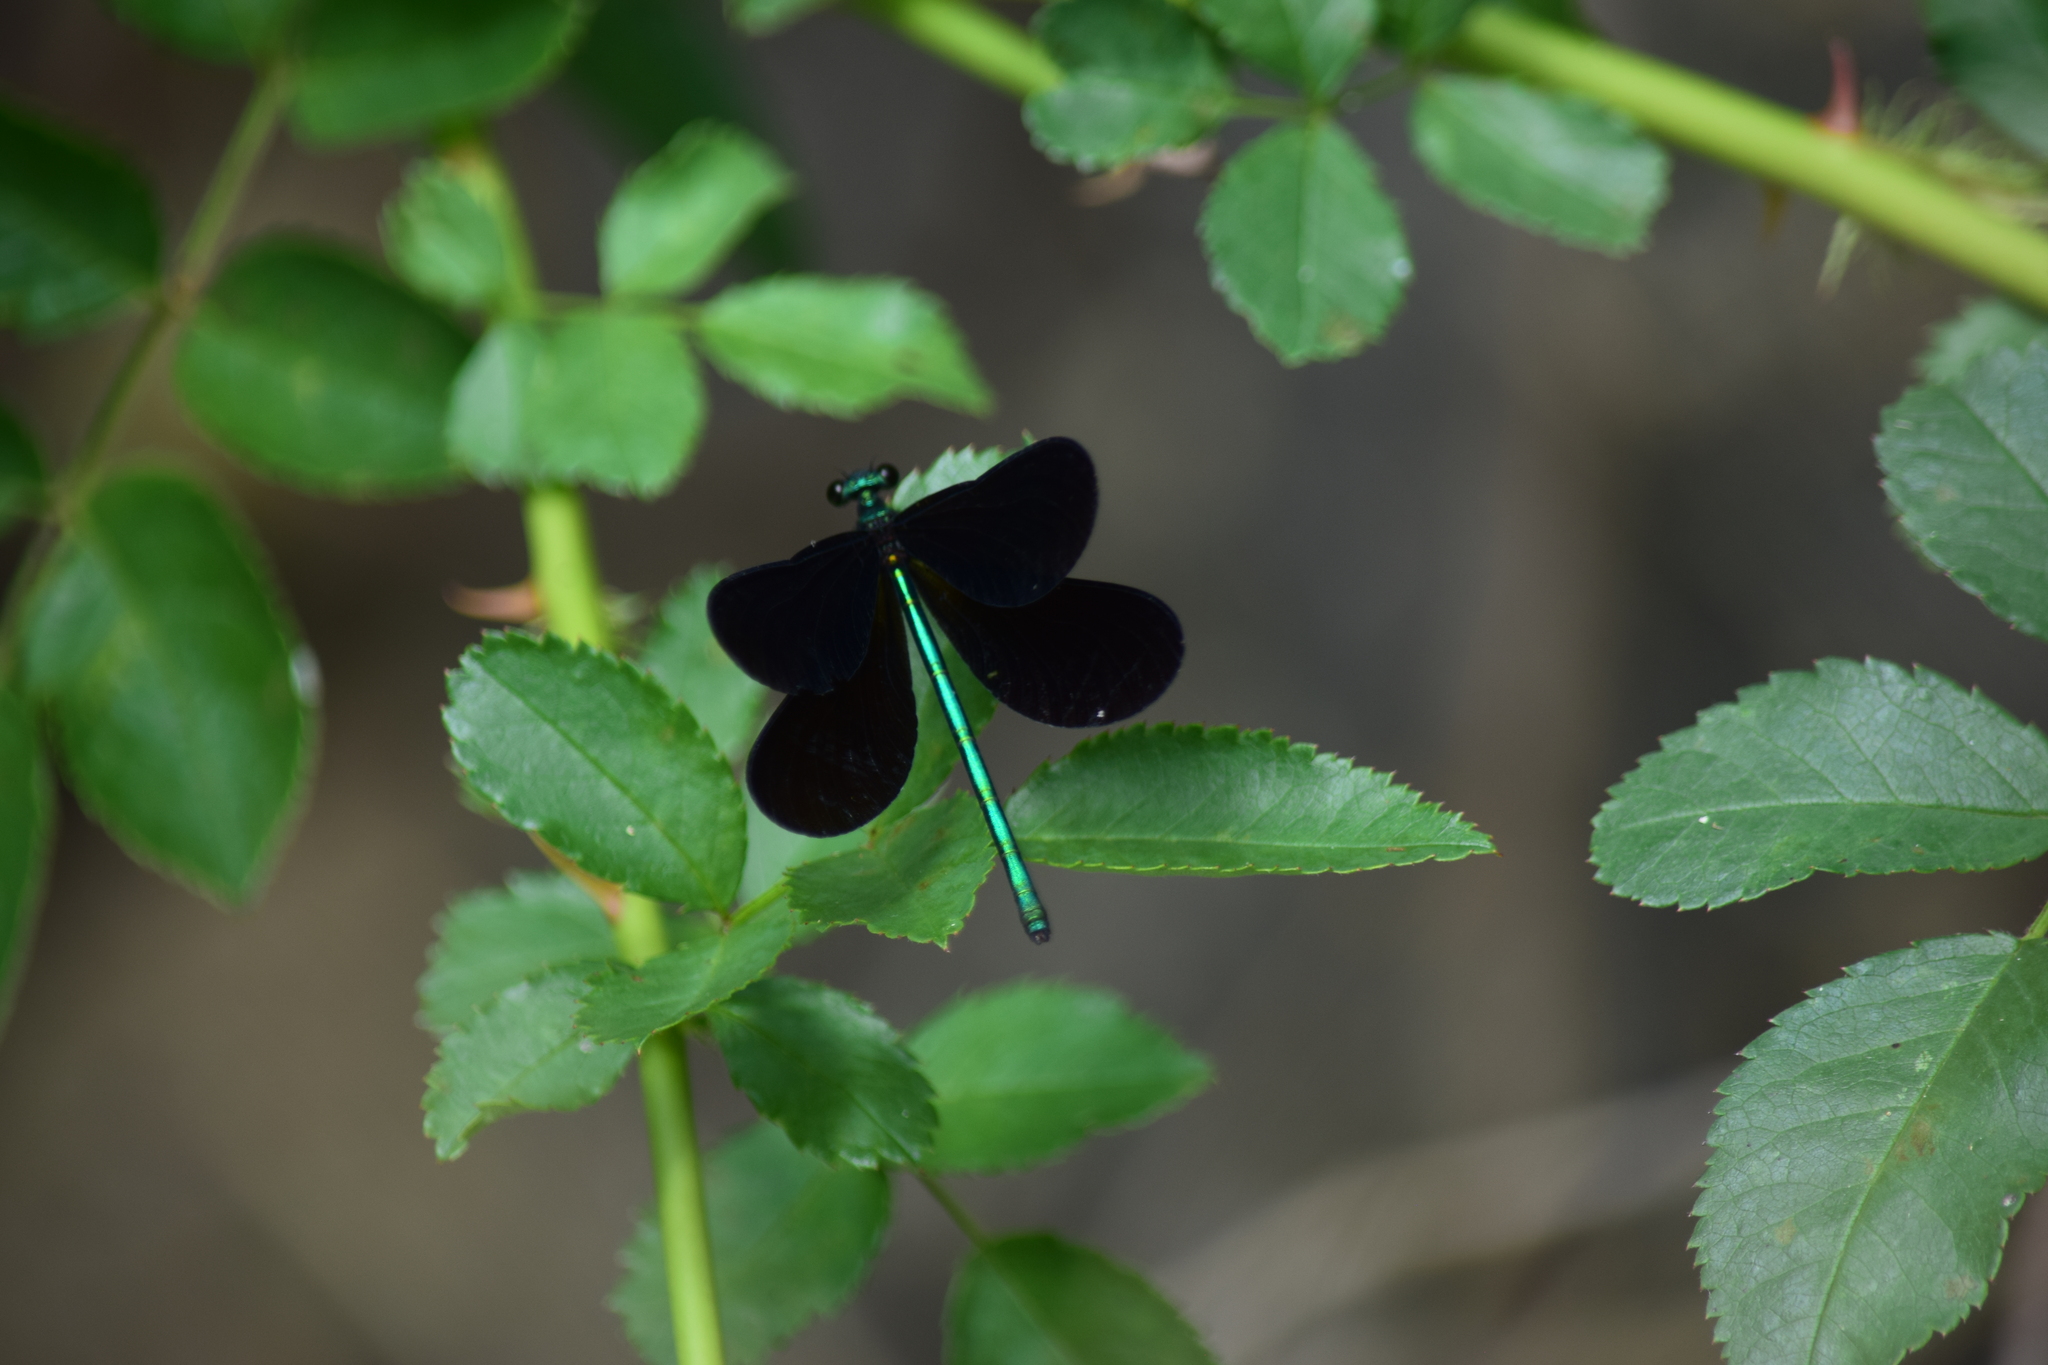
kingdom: Animalia
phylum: Arthropoda
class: Insecta
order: Odonata
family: Calopterygidae
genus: Calopteryx
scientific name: Calopteryx maculata
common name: Ebony jewelwing
